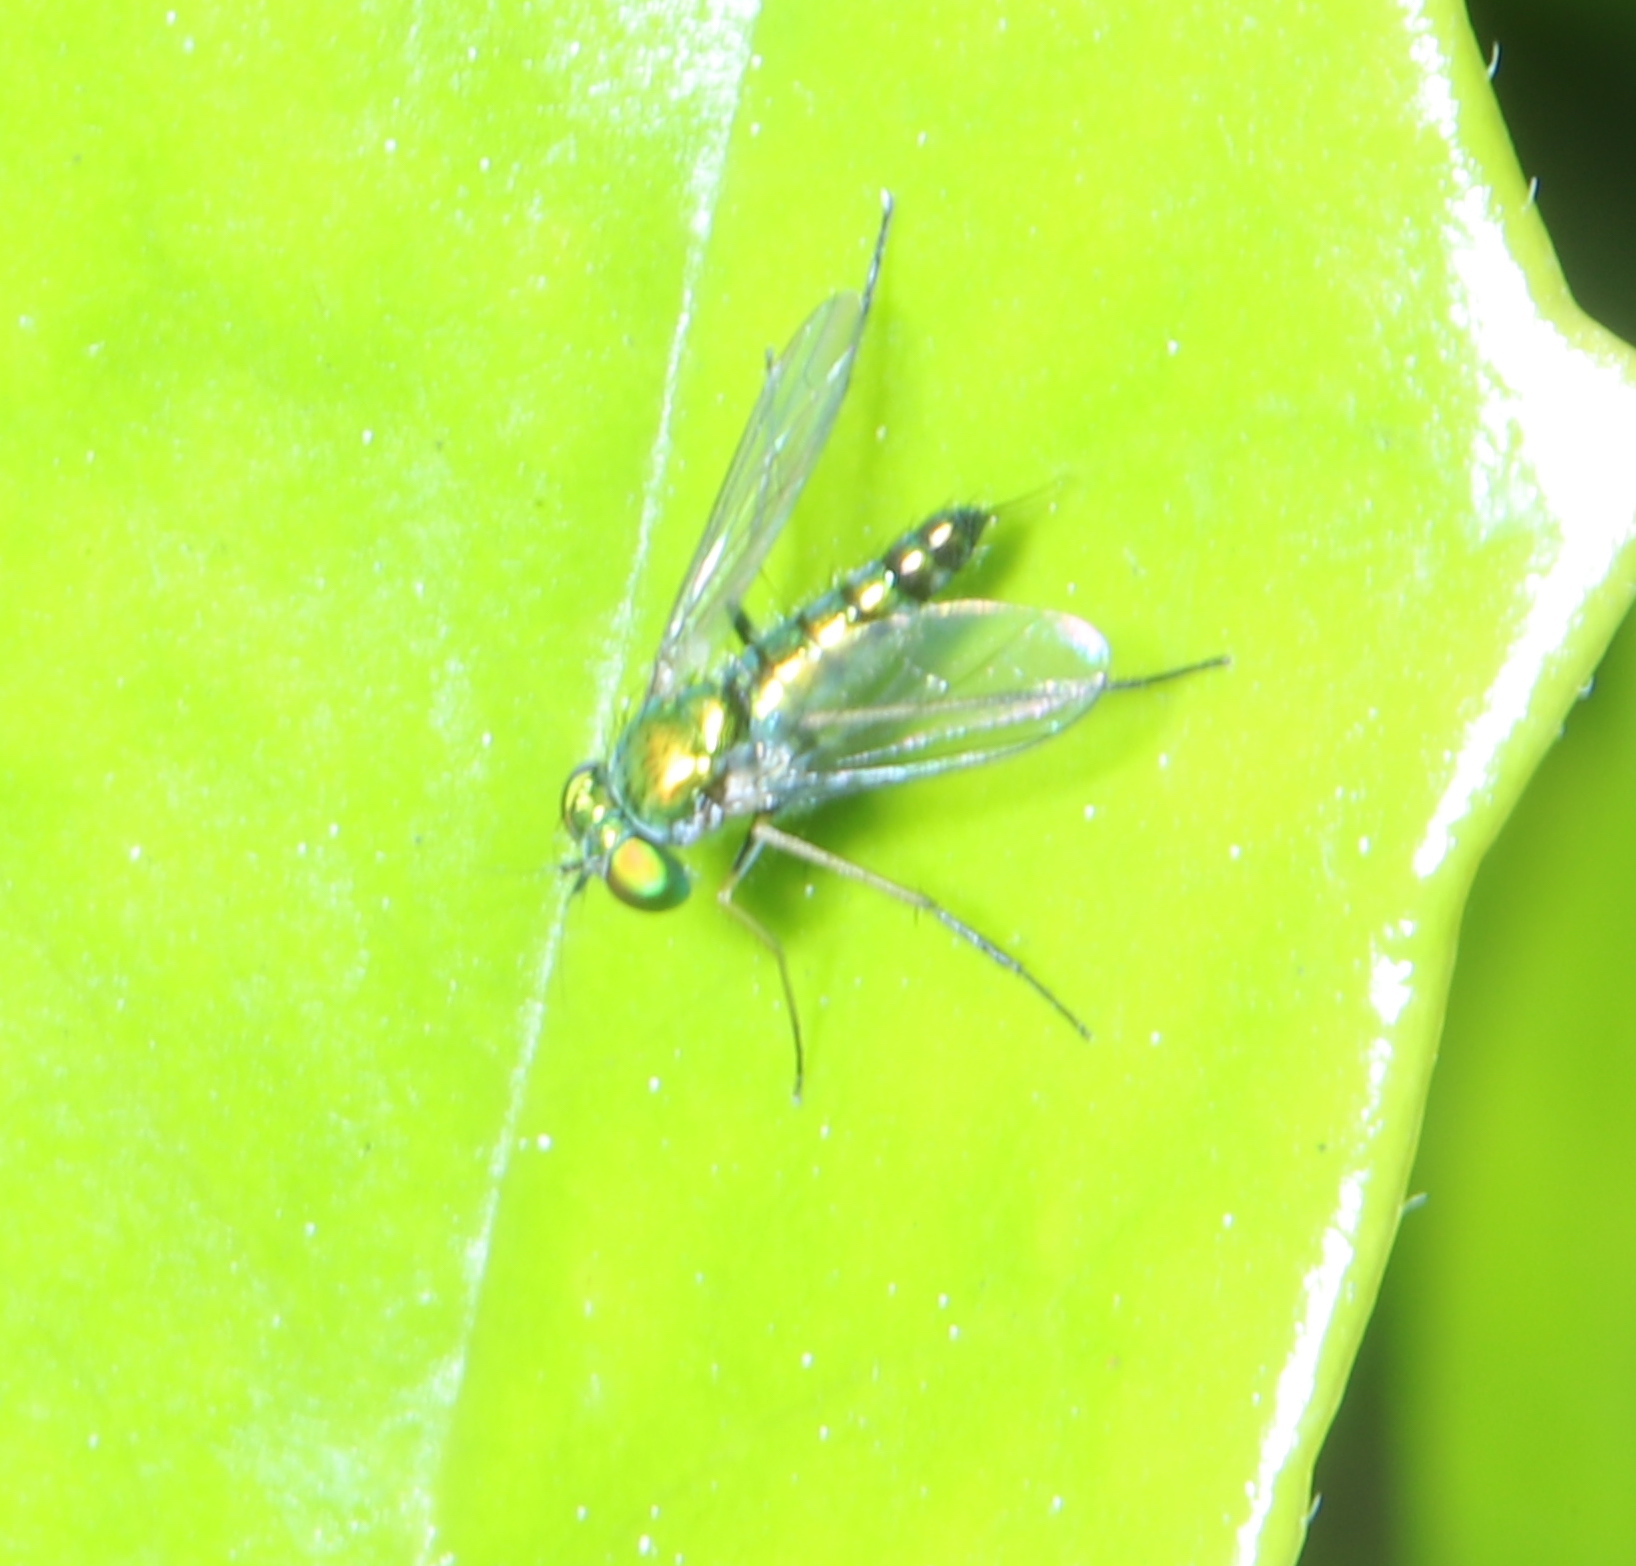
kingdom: Animalia
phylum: Arthropoda
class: Insecta
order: Diptera
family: Dolichopodidae
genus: Condylostylus
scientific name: Condylostylus caudatus
